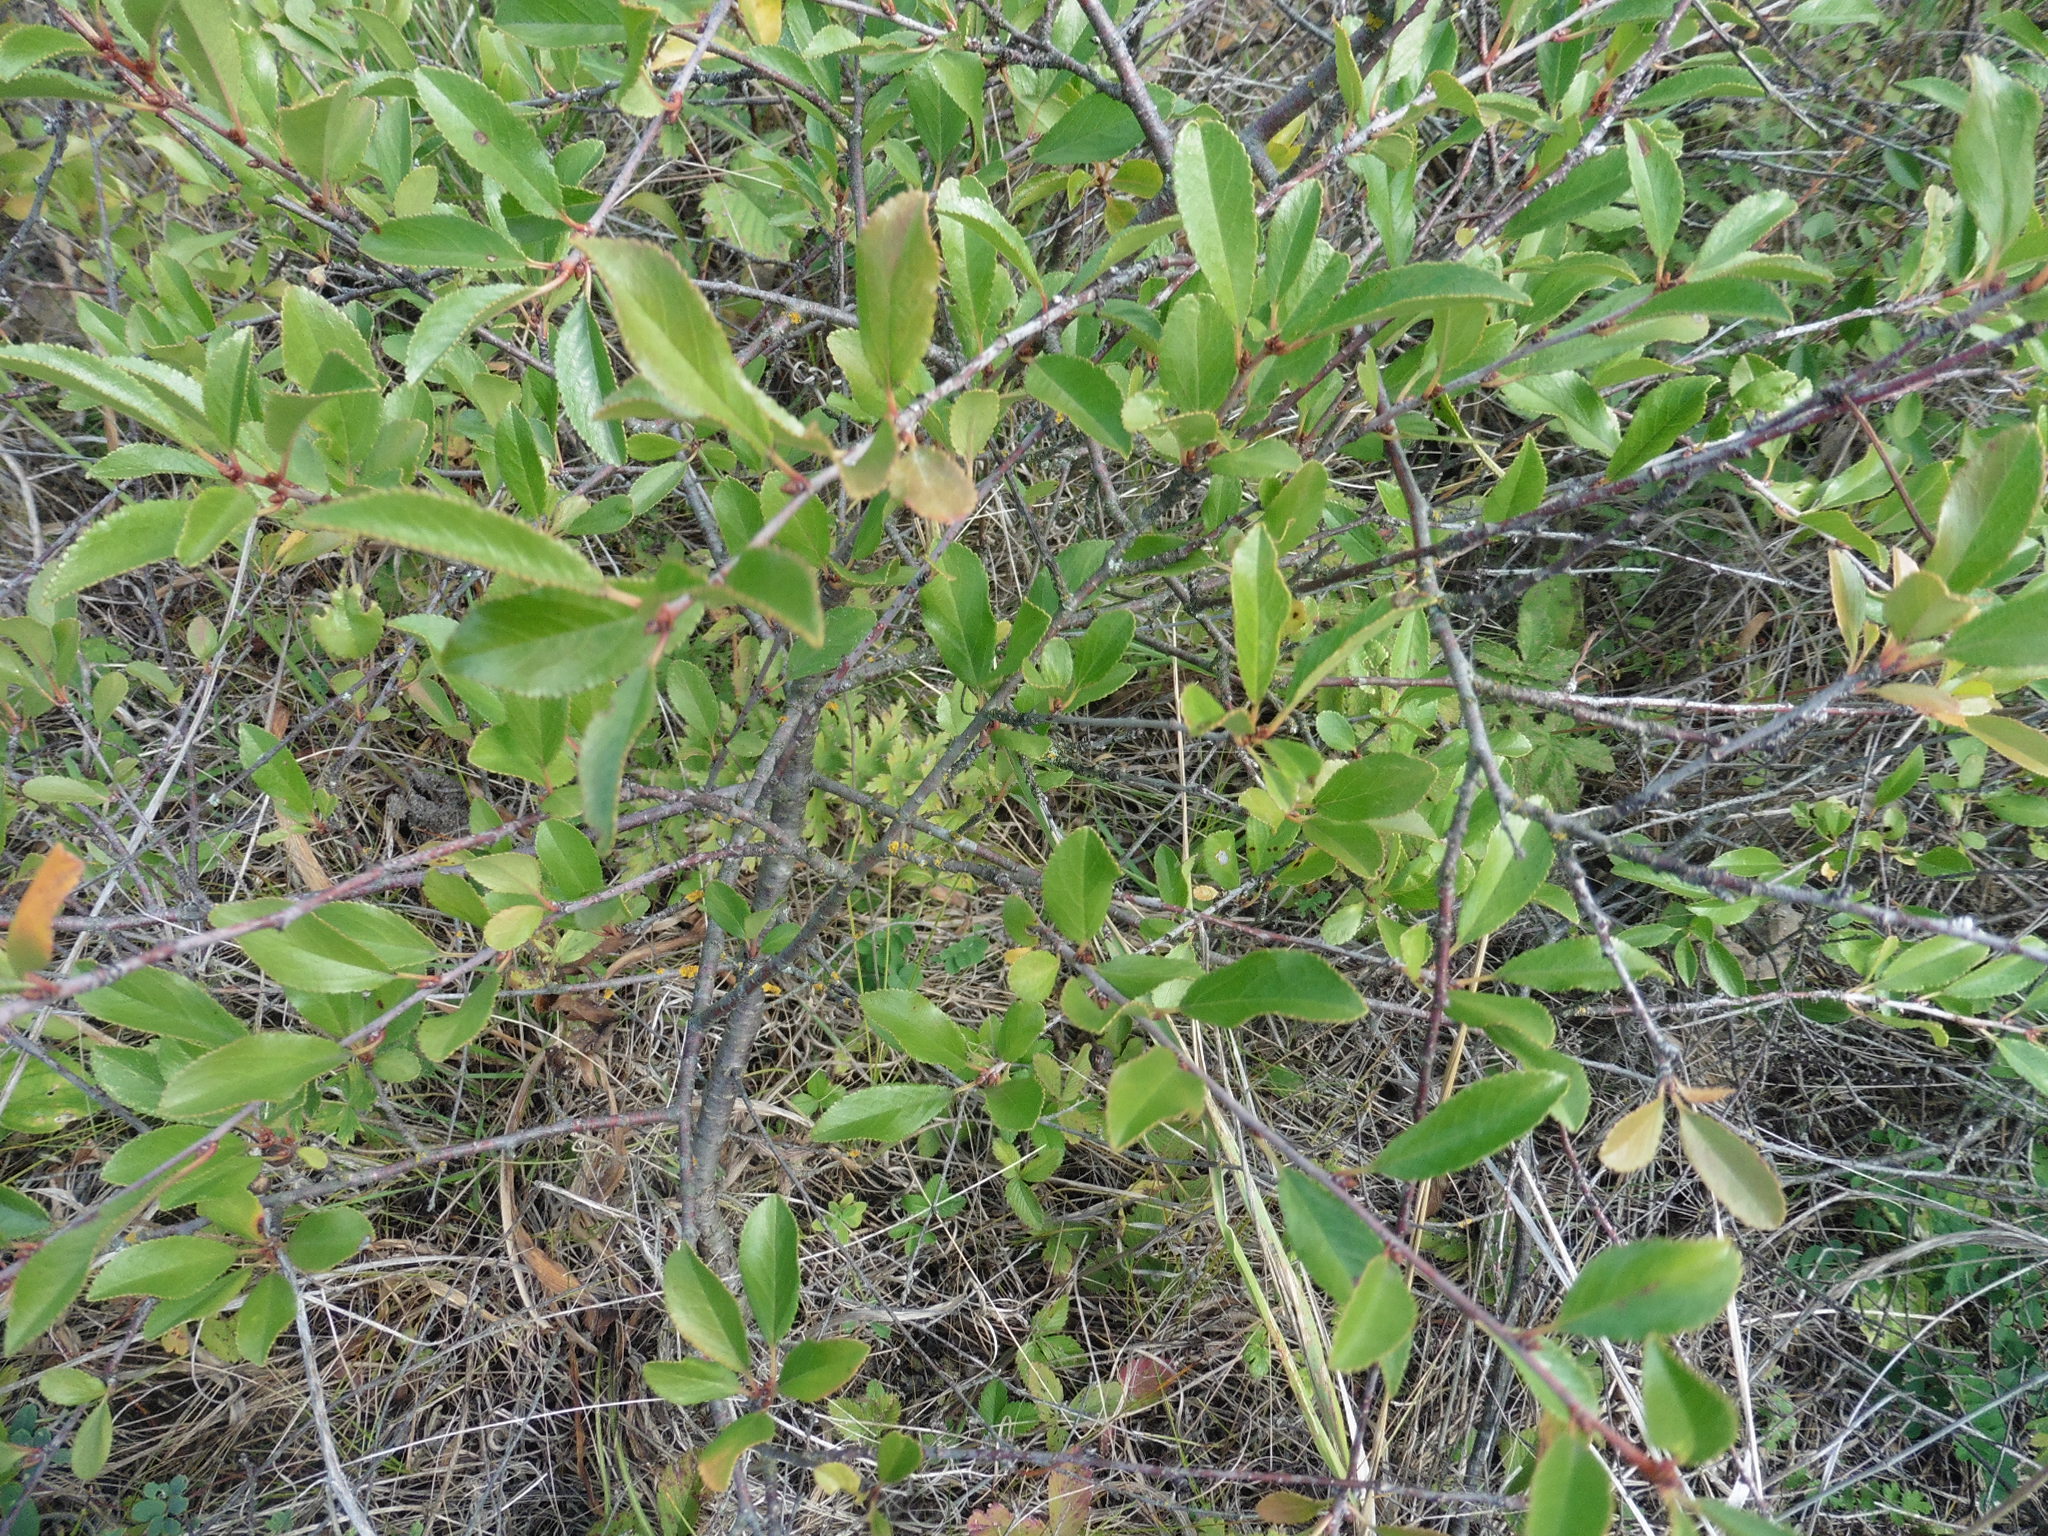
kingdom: Plantae
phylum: Tracheophyta
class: Magnoliopsida
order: Rosales
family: Rosaceae
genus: Prunus
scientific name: Prunus fruticosa
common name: European dwarf cherry
